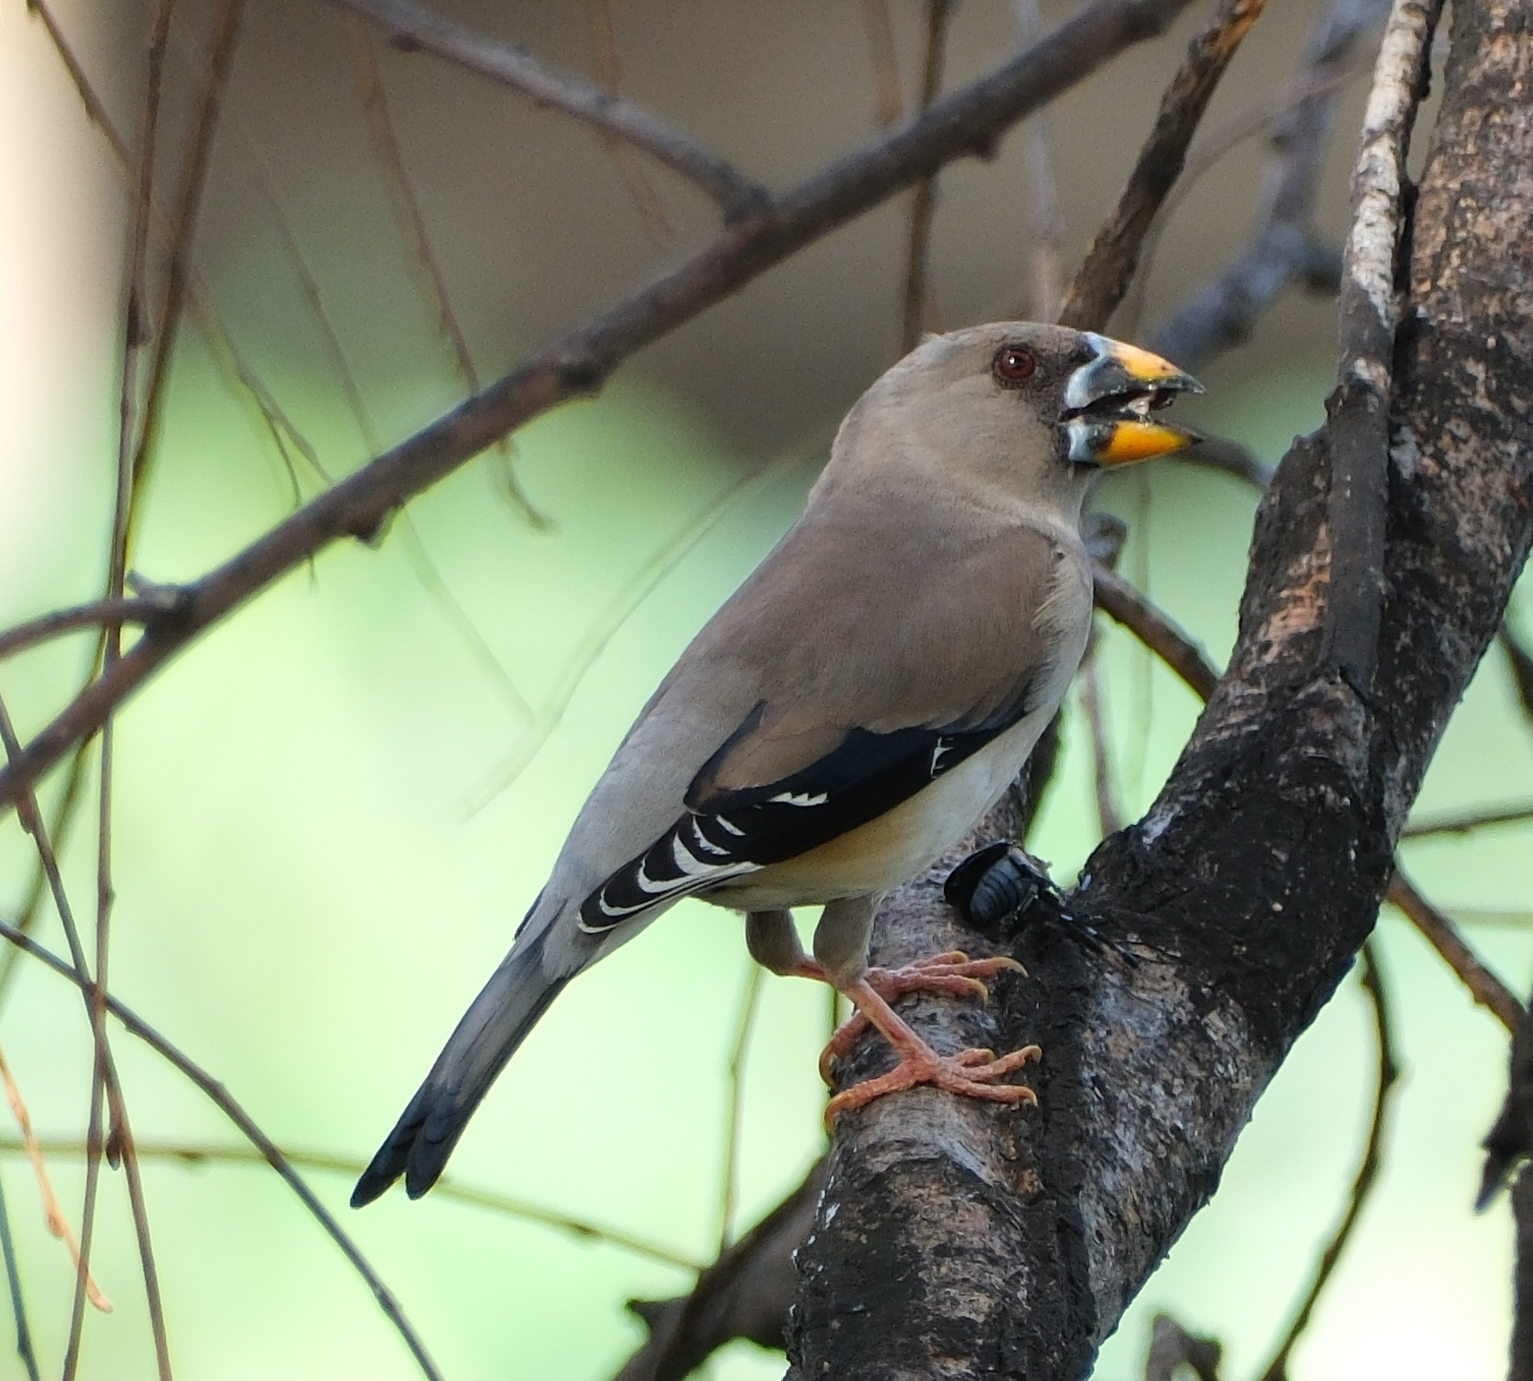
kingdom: Animalia
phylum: Chordata
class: Aves
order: Passeriformes
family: Fringillidae
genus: Eophona
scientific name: Eophona migratoria
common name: Yellow-billed grosbeak
